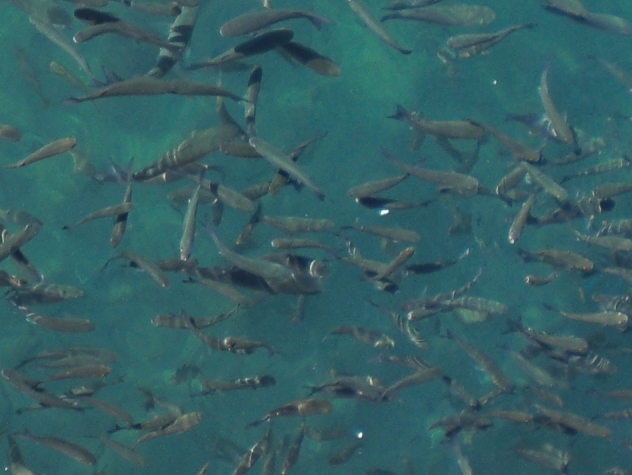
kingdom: Animalia
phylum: Chordata
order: Perciformes
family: Sparidae
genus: Spondyliosoma
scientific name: Spondyliosoma cantharus
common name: Black seabream
